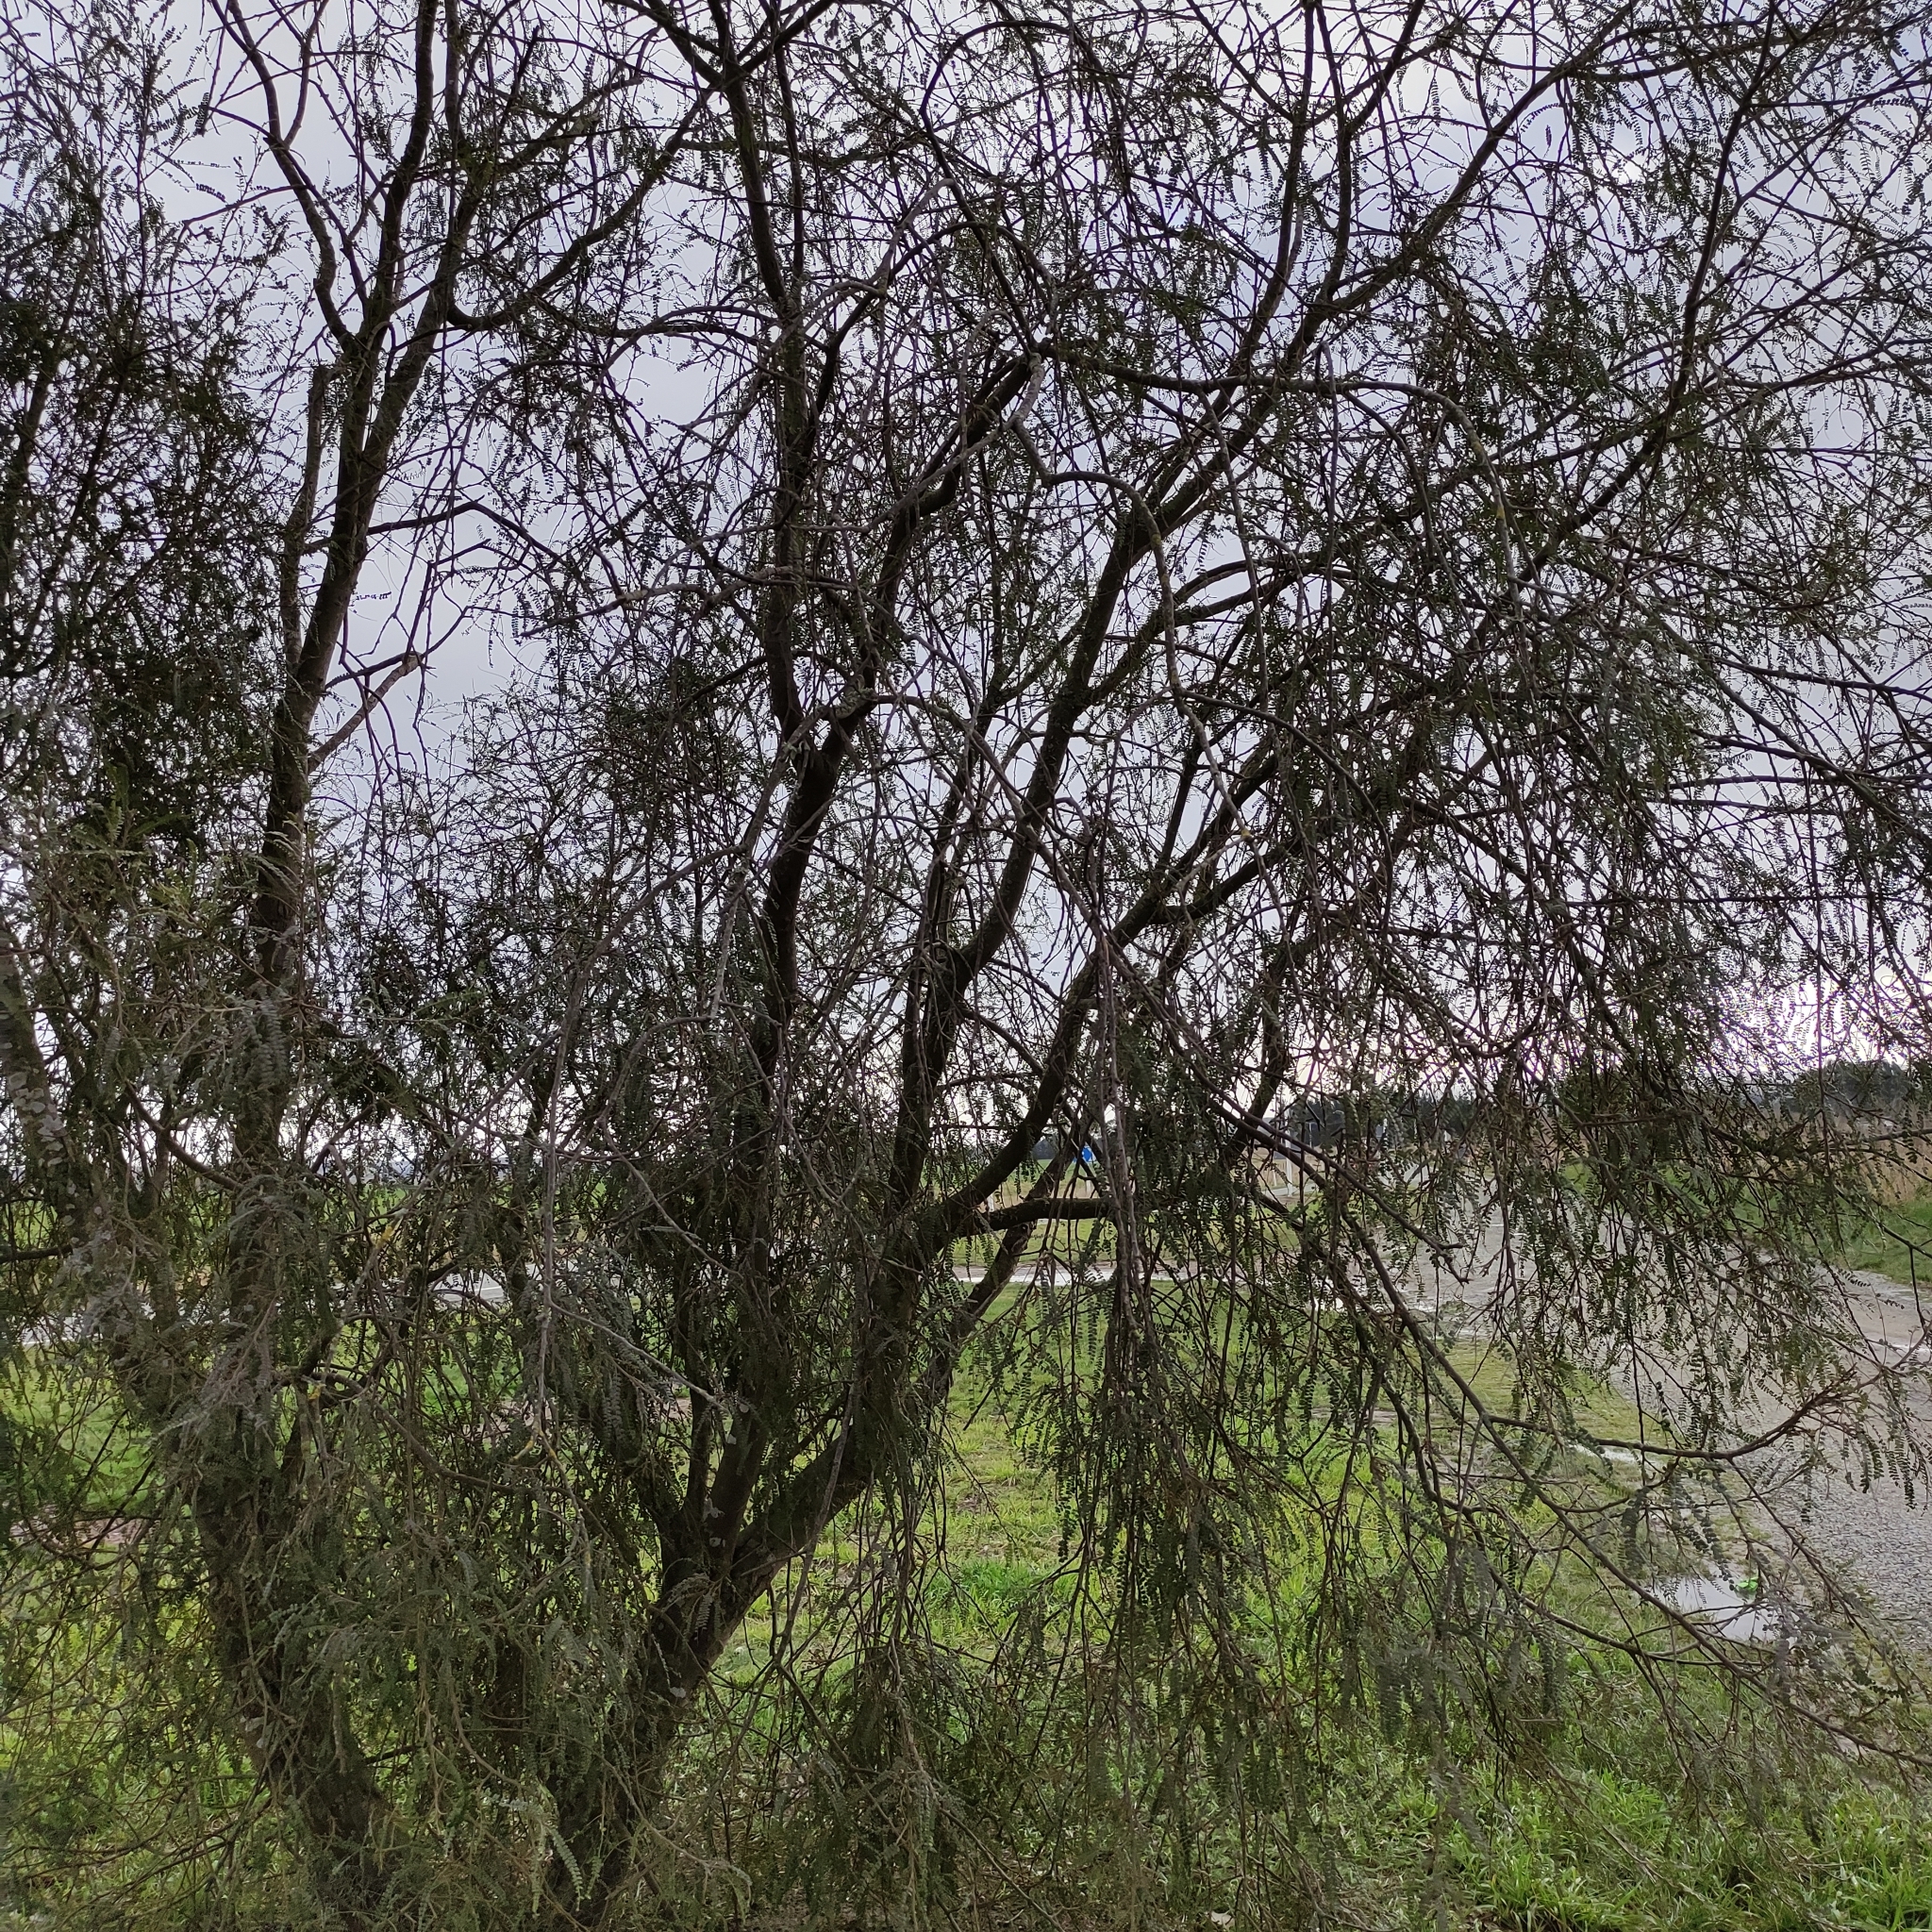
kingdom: Plantae
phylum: Tracheophyta
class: Magnoliopsida
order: Fabales
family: Fabaceae
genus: Sophora
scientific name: Sophora microphylla
